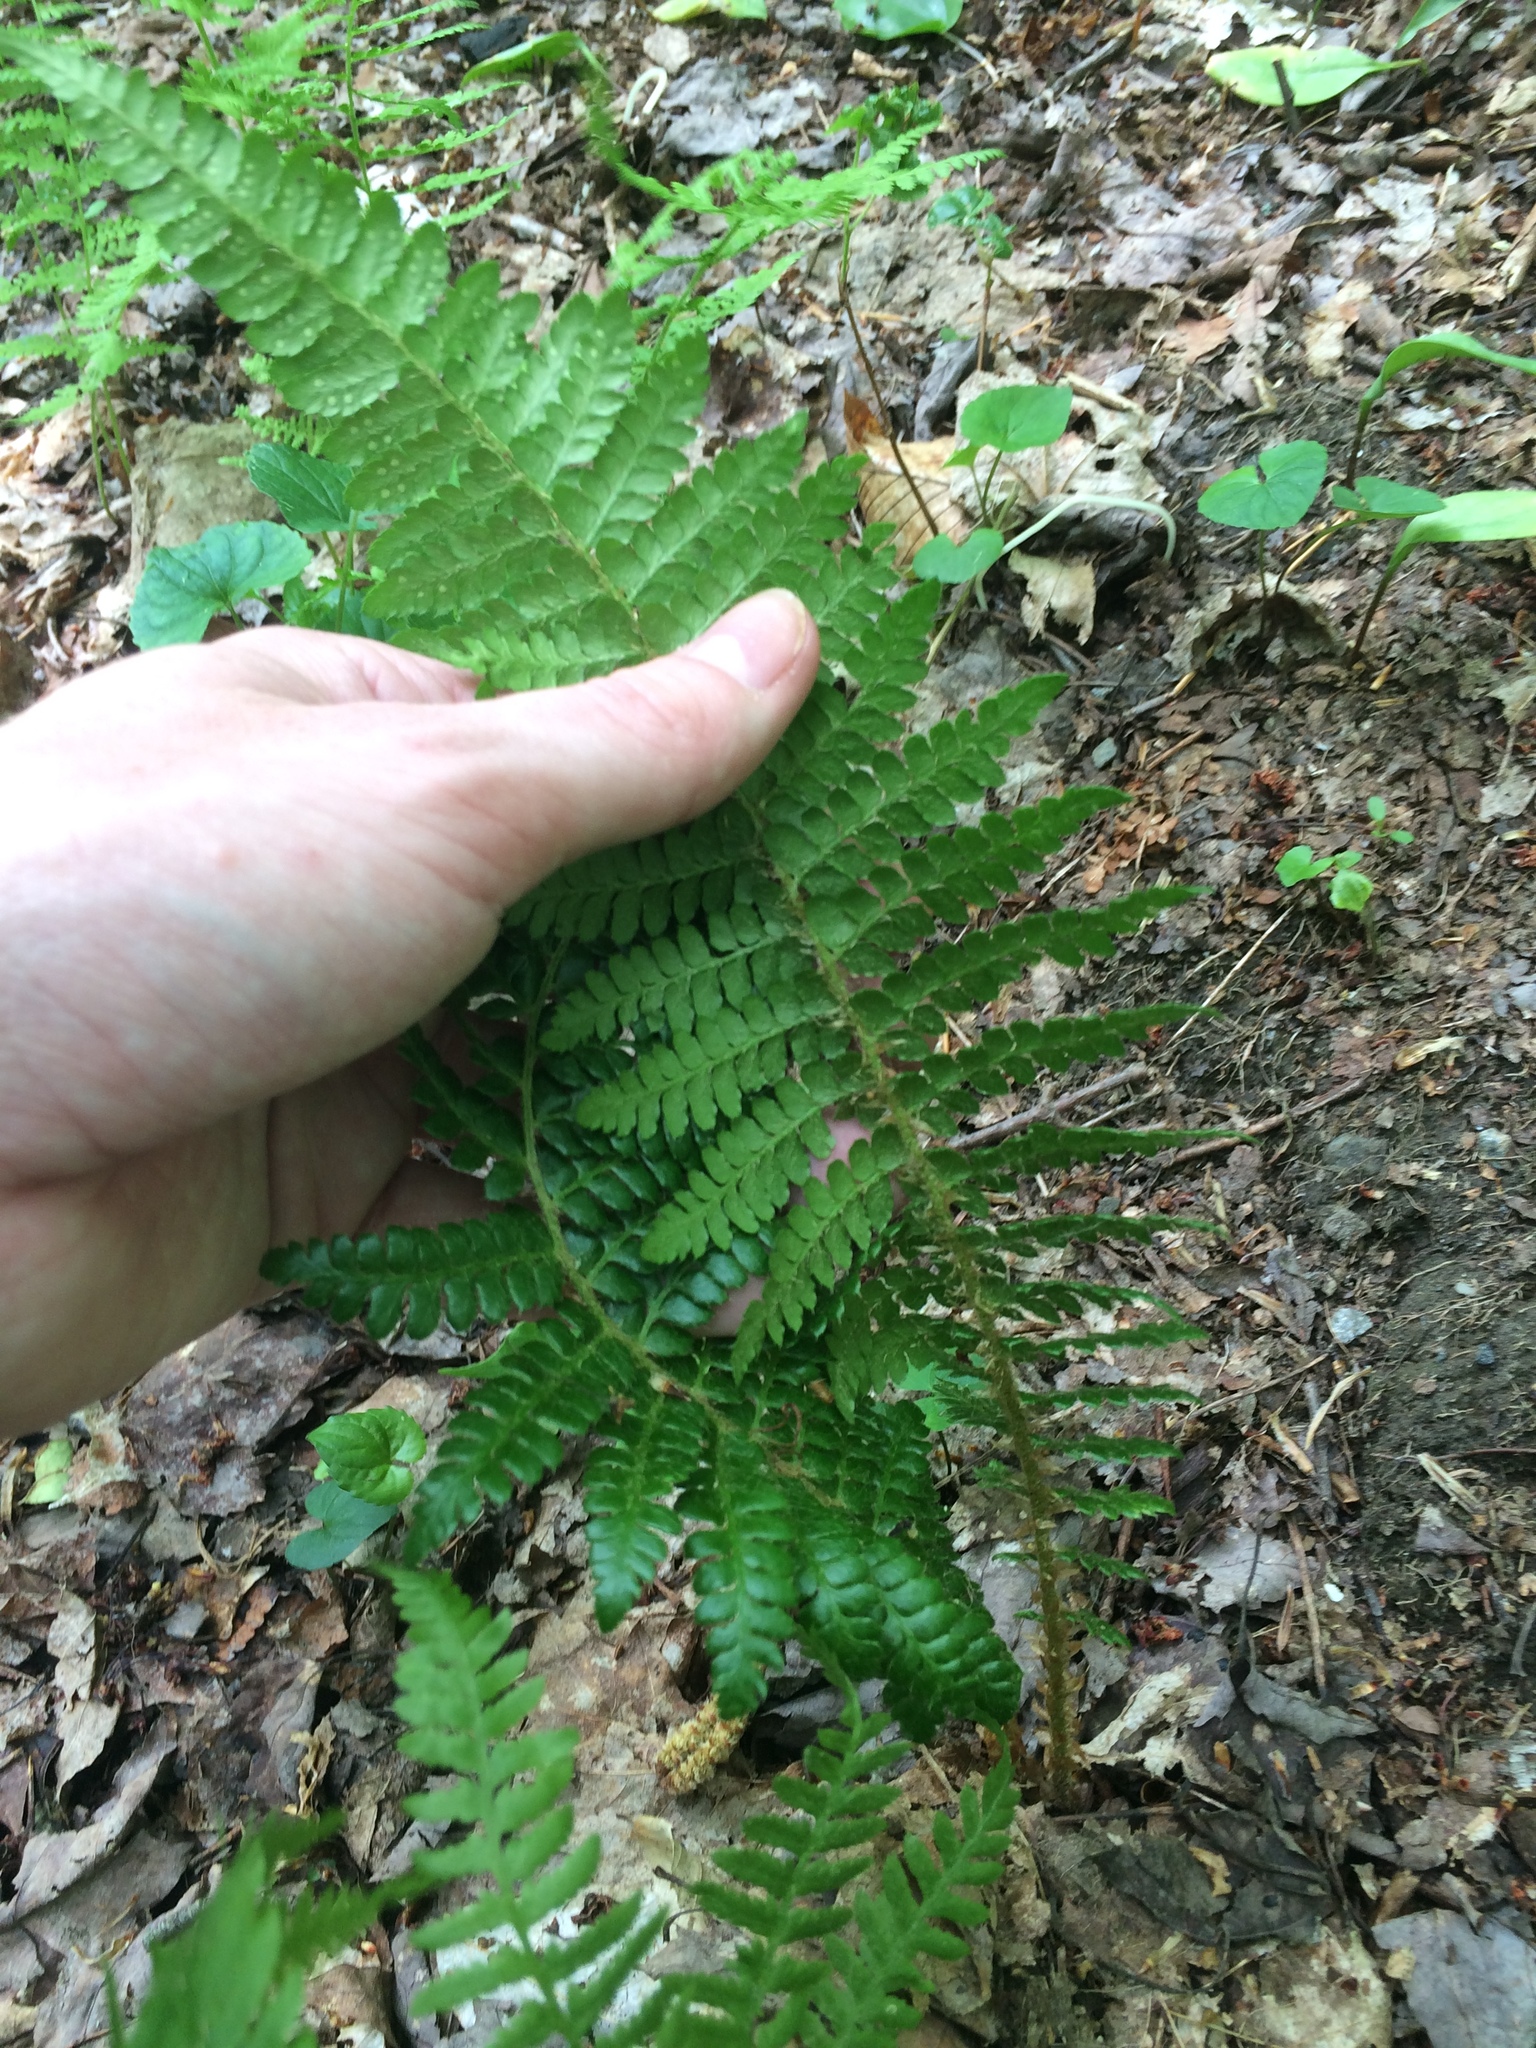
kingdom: Plantae
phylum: Tracheophyta
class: Polypodiopsida
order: Polypodiales
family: Dryopteridaceae
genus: Polystichum
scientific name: Polystichum braunii
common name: Braun's holly fern
